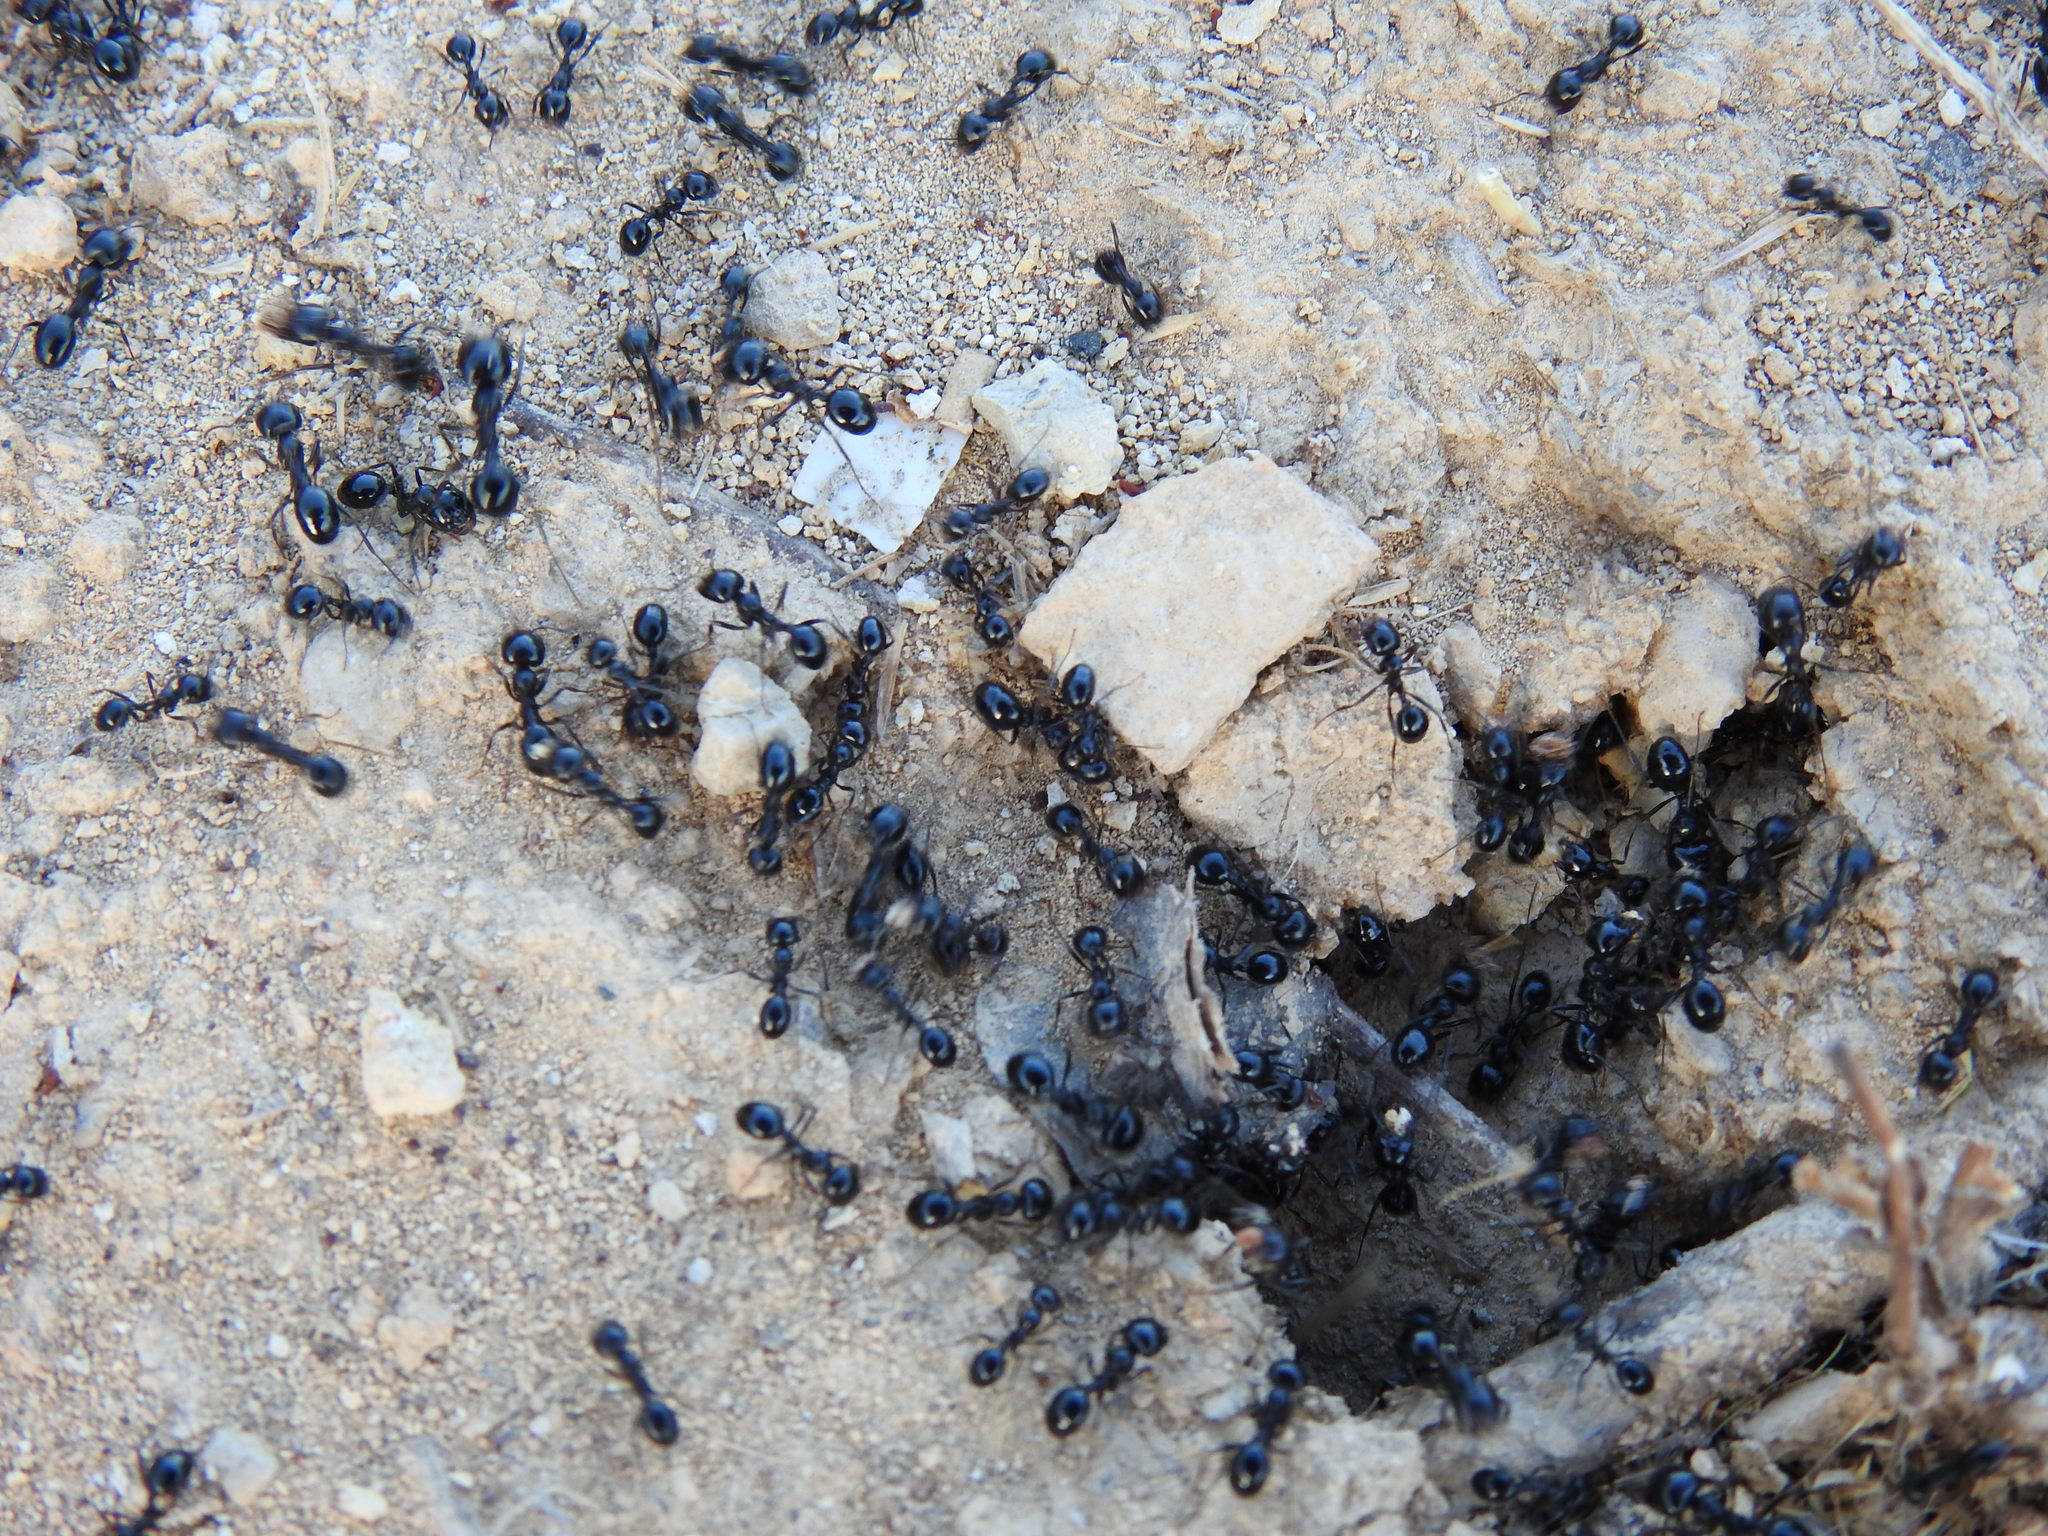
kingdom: Animalia
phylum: Arthropoda
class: Insecta
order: Hymenoptera
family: Formicidae
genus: Messor
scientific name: Messor bouvieri
